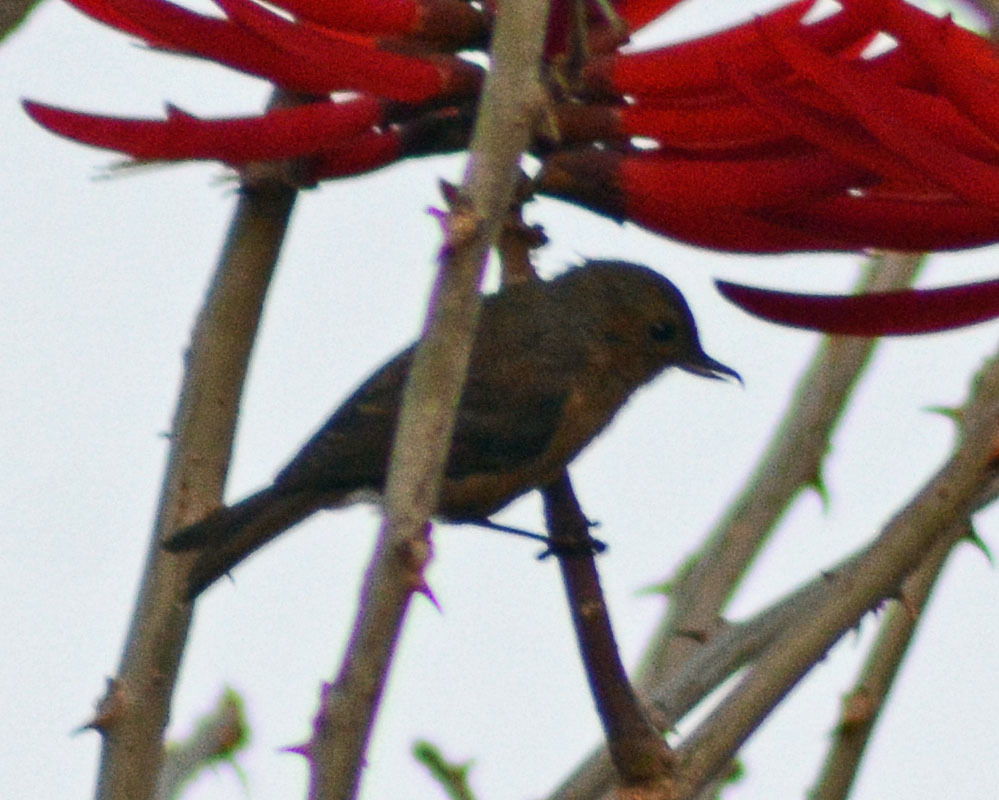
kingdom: Animalia
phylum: Chordata
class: Aves
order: Passeriformes
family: Thraupidae
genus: Diglossa
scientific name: Diglossa baritula
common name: Cinnamon-bellied flowerpiercer
